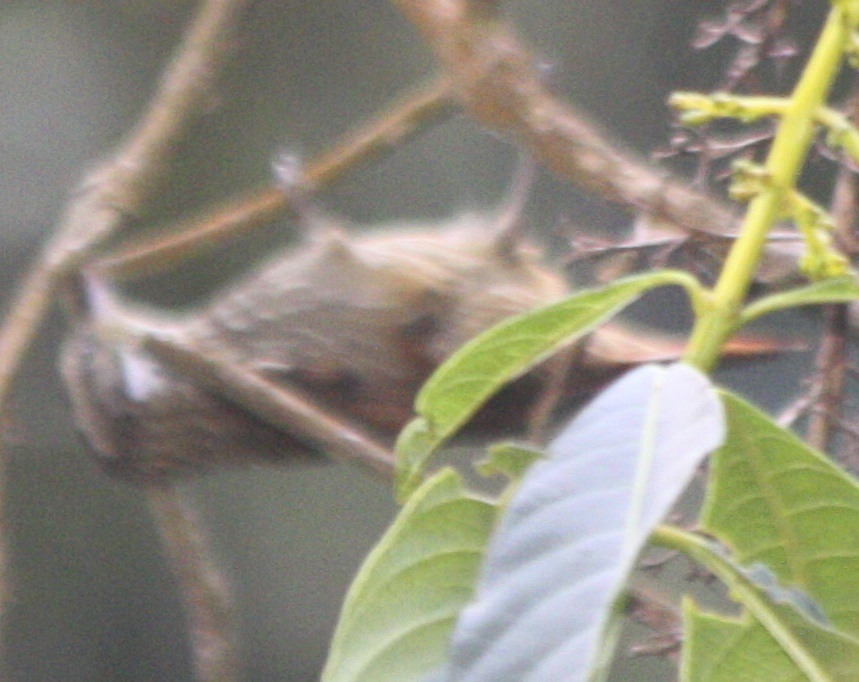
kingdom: Animalia
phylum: Chordata
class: Aves
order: Passeriformes
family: Furnariidae
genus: Xenops
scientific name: Xenops rutilans
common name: Streaked xenops
